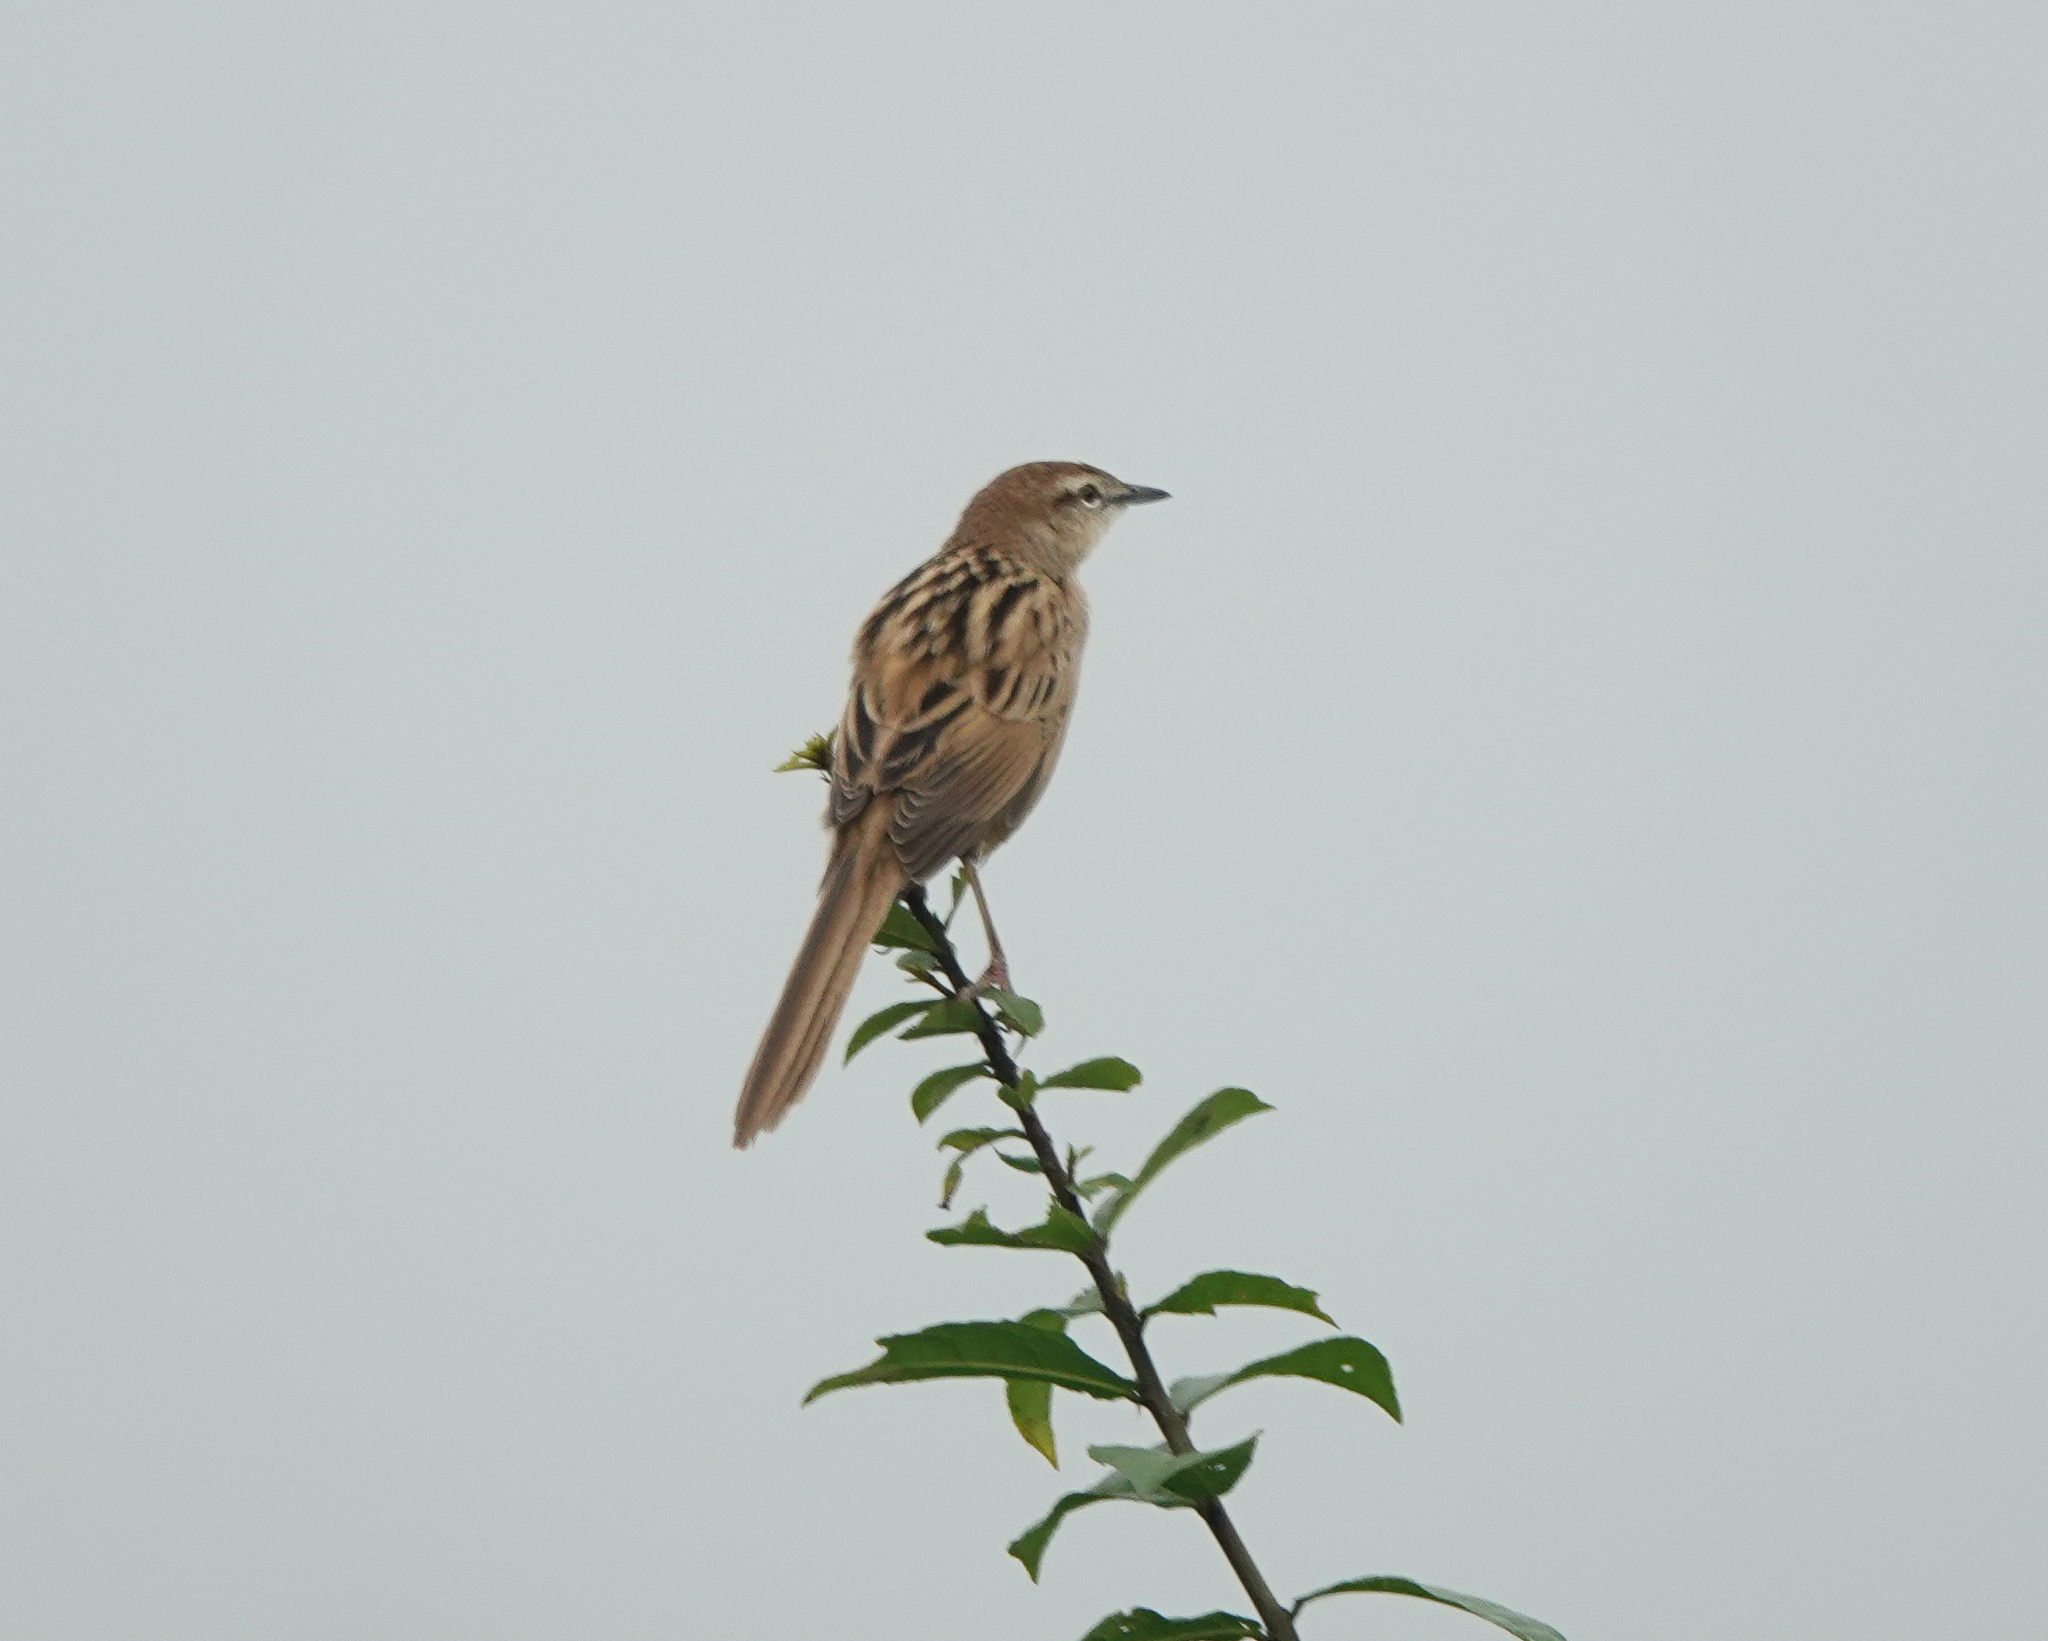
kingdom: Animalia
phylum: Chordata
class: Aves
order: Passeriformes
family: Locustellidae
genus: Megalurus
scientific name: Megalurus palustris
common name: Striated grassbird
